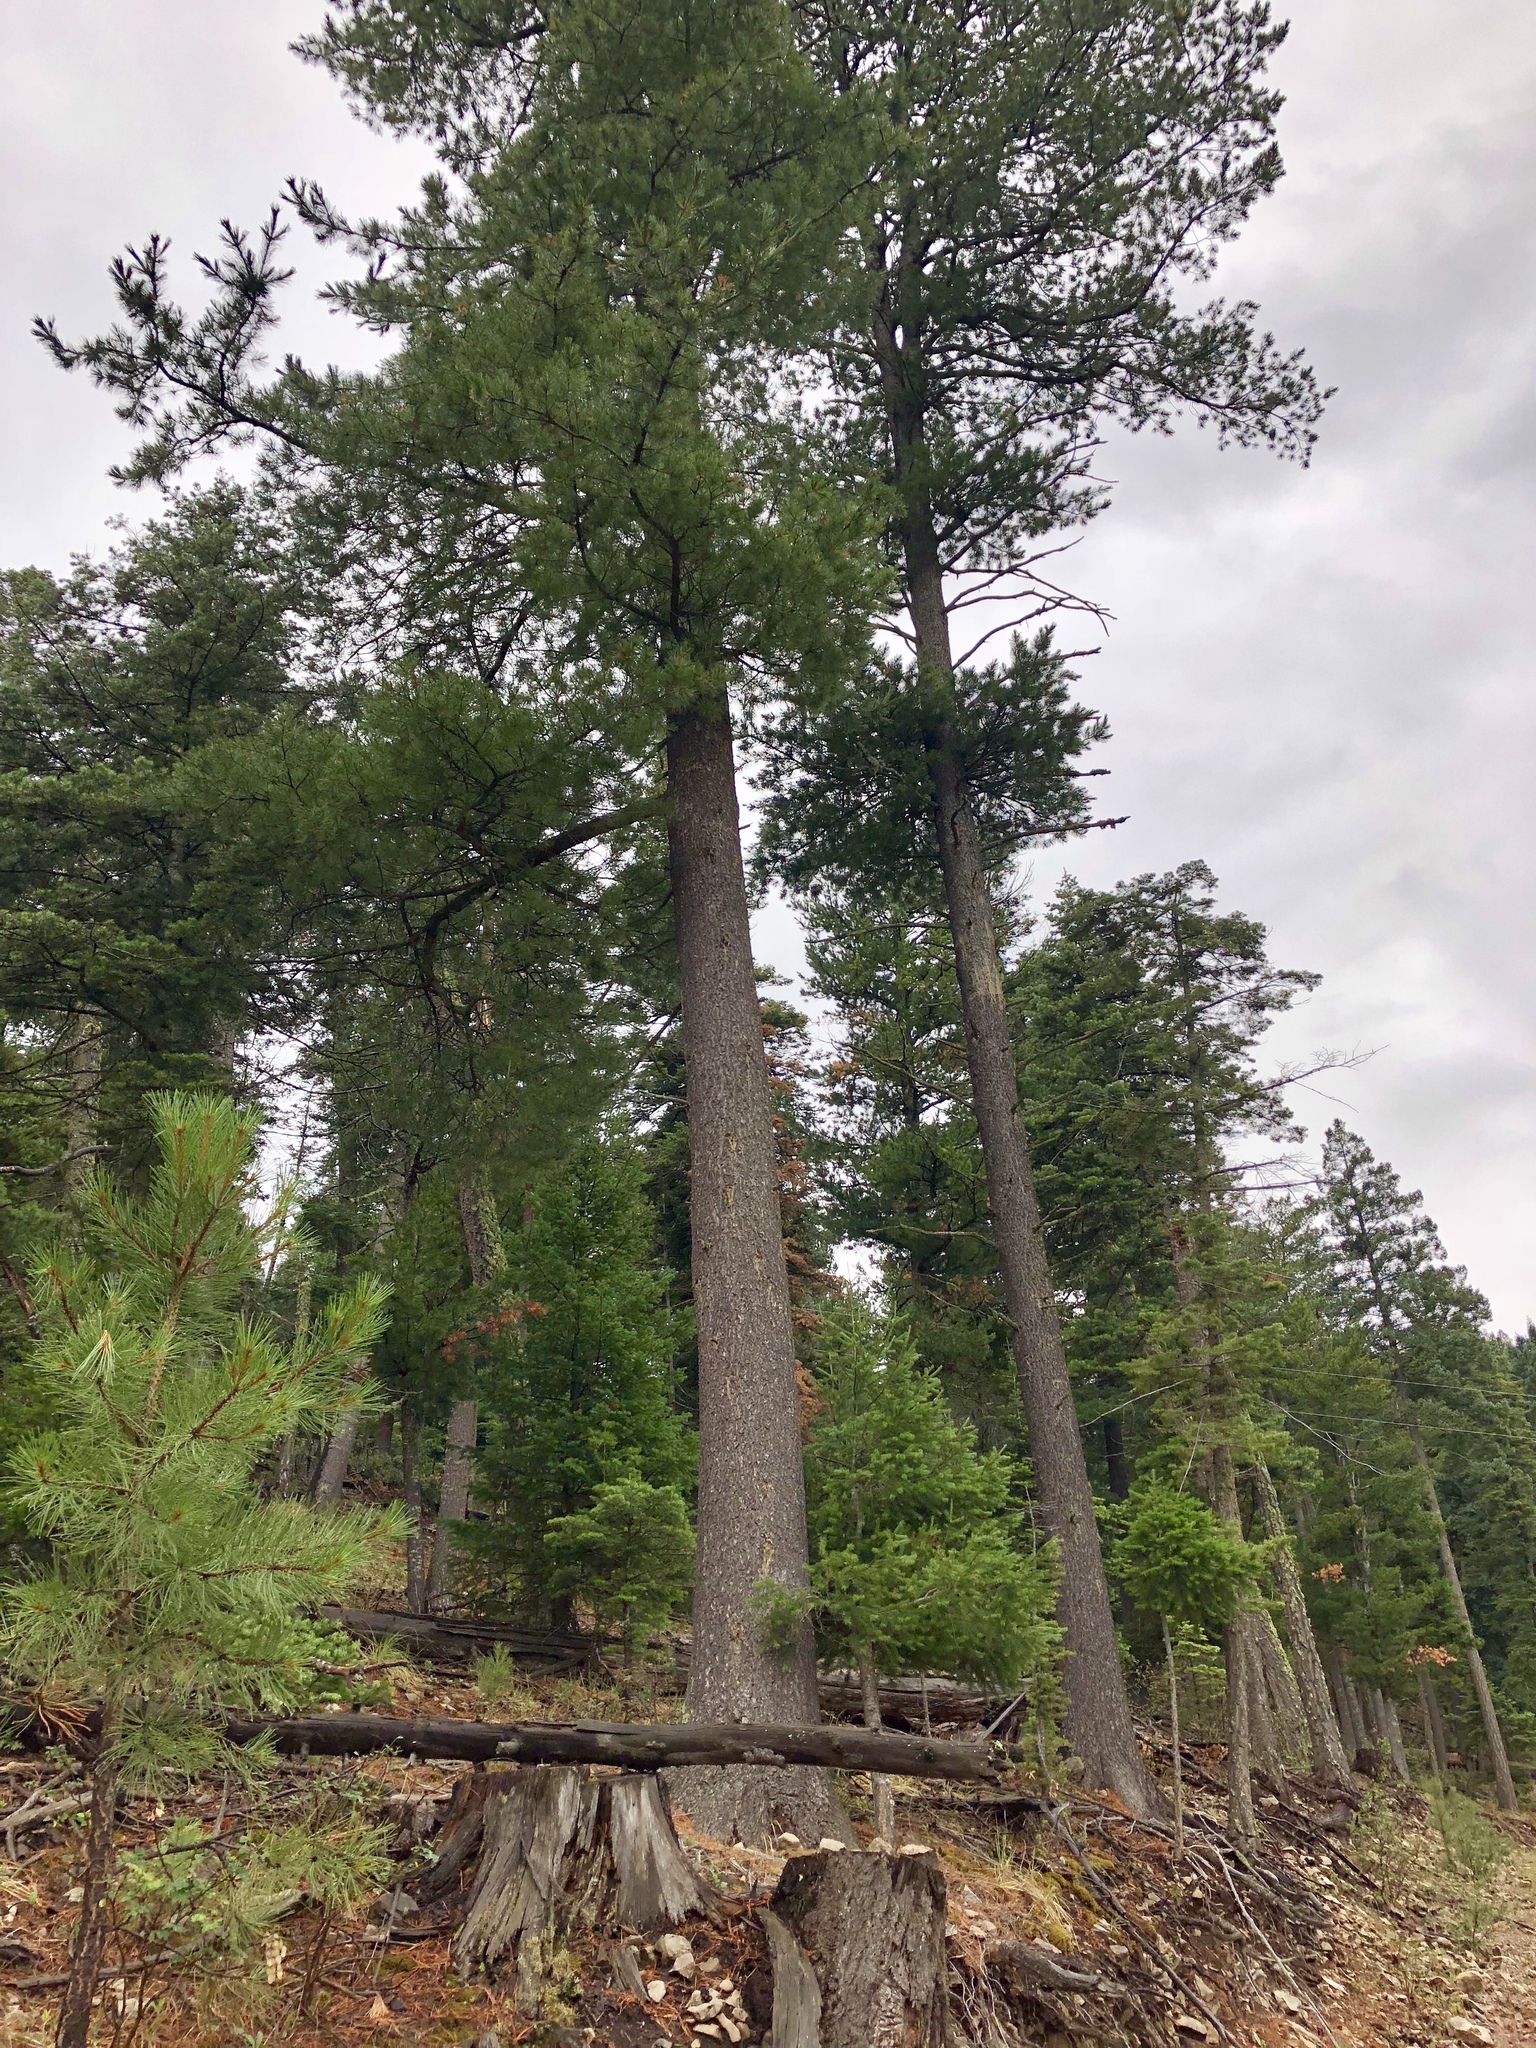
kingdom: Plantae
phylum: Tracheophyta
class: Pinopsida
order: Pinales
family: Pinaceae
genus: Pinus
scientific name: Pinus strobiformis
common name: Southwestern white pine
